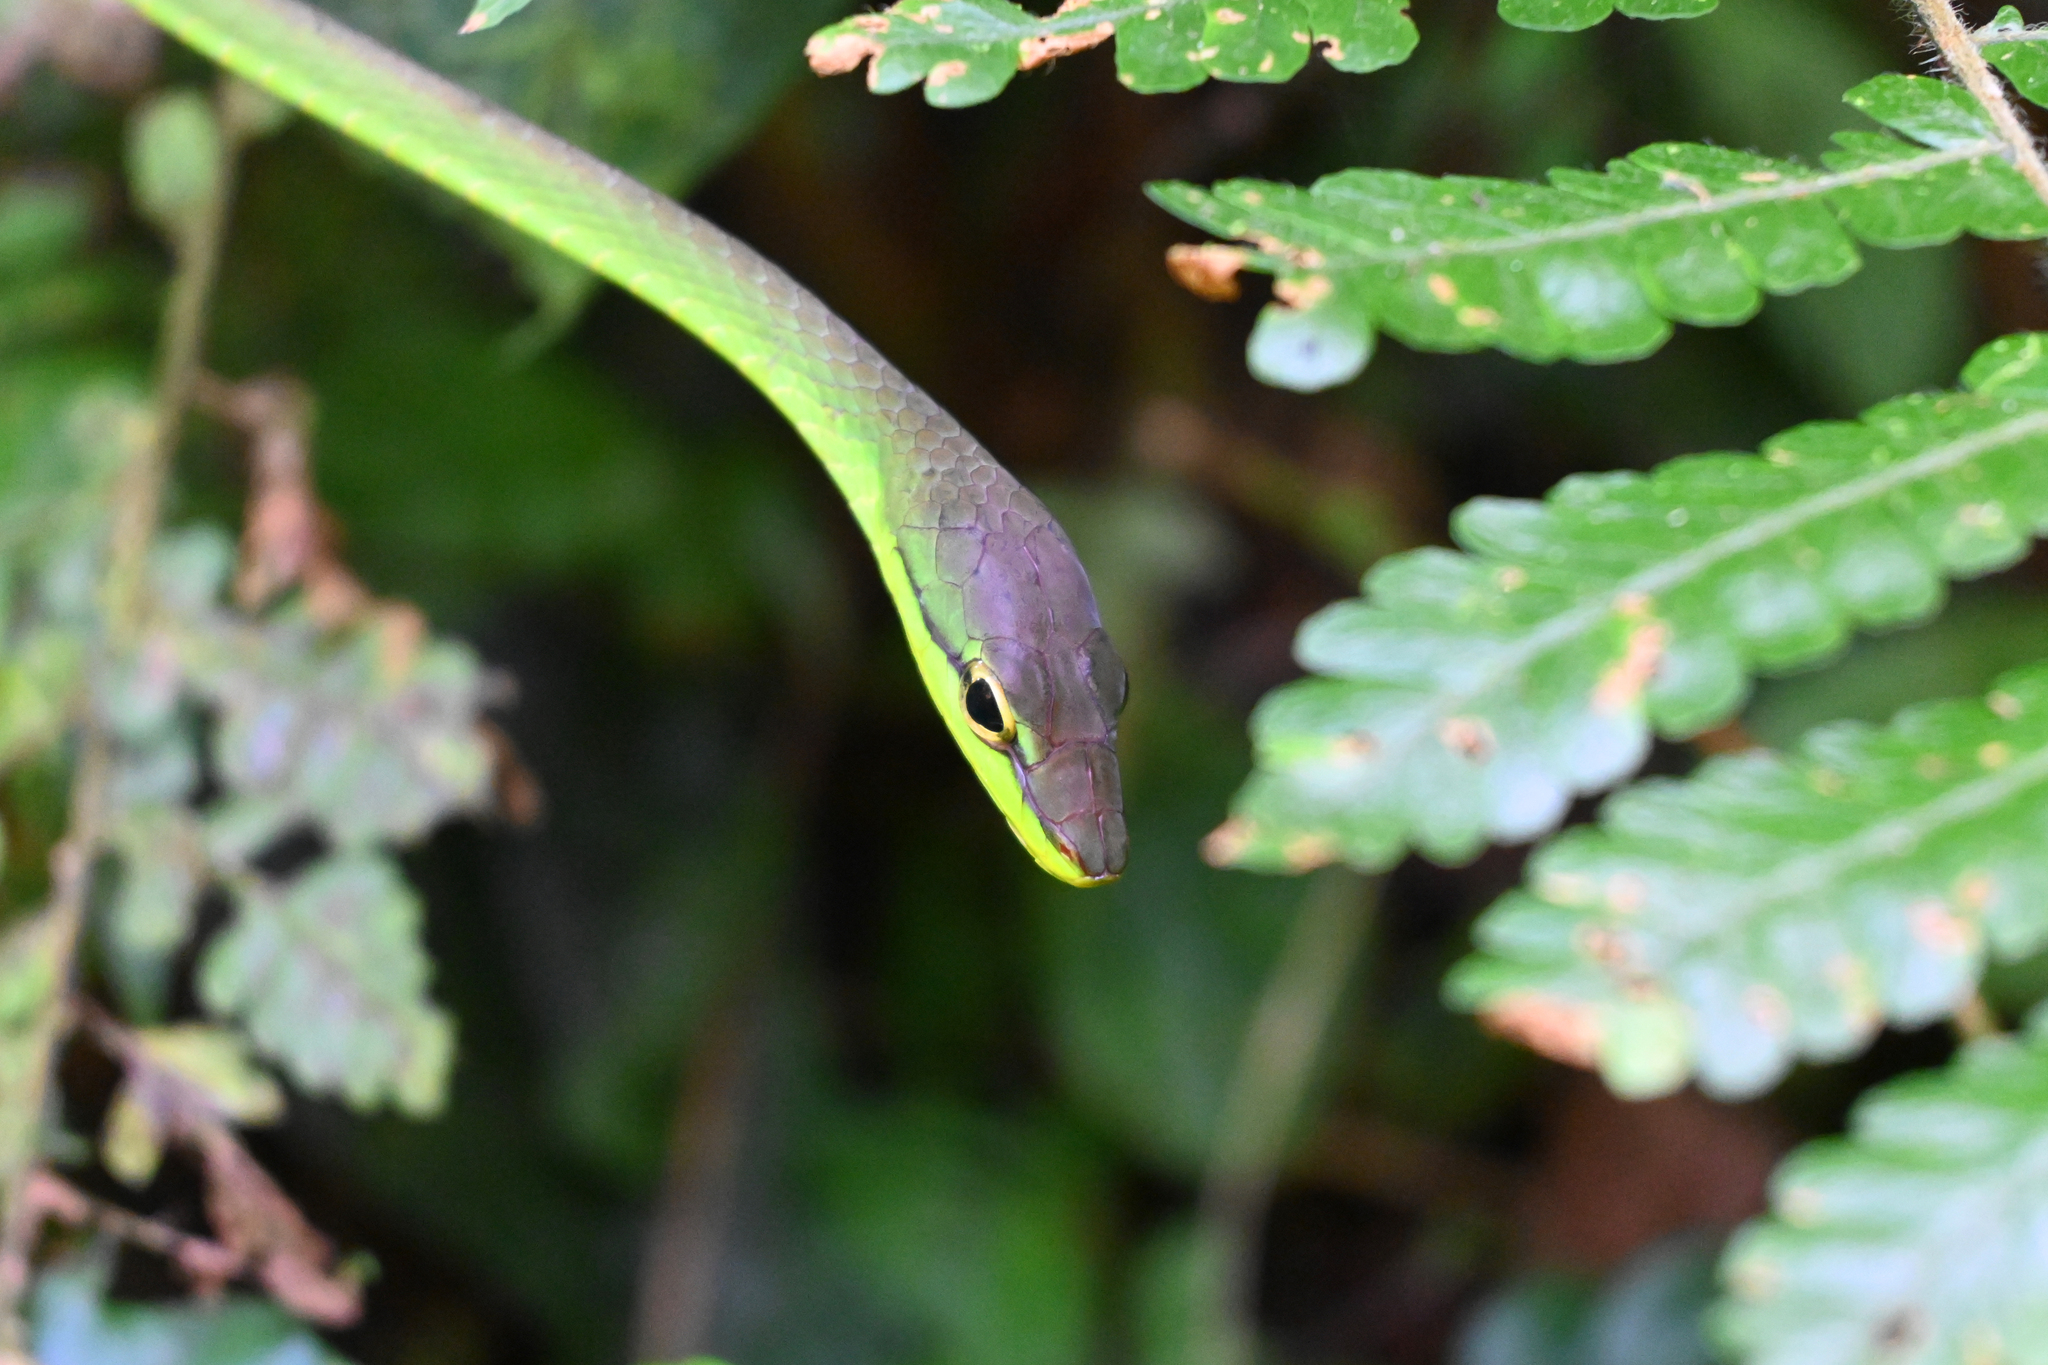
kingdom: Animalia
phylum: Chordata
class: Squamata
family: Colubridae
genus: Oxybelis
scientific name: Oxybelis brevirostris
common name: Cope's vine snake
